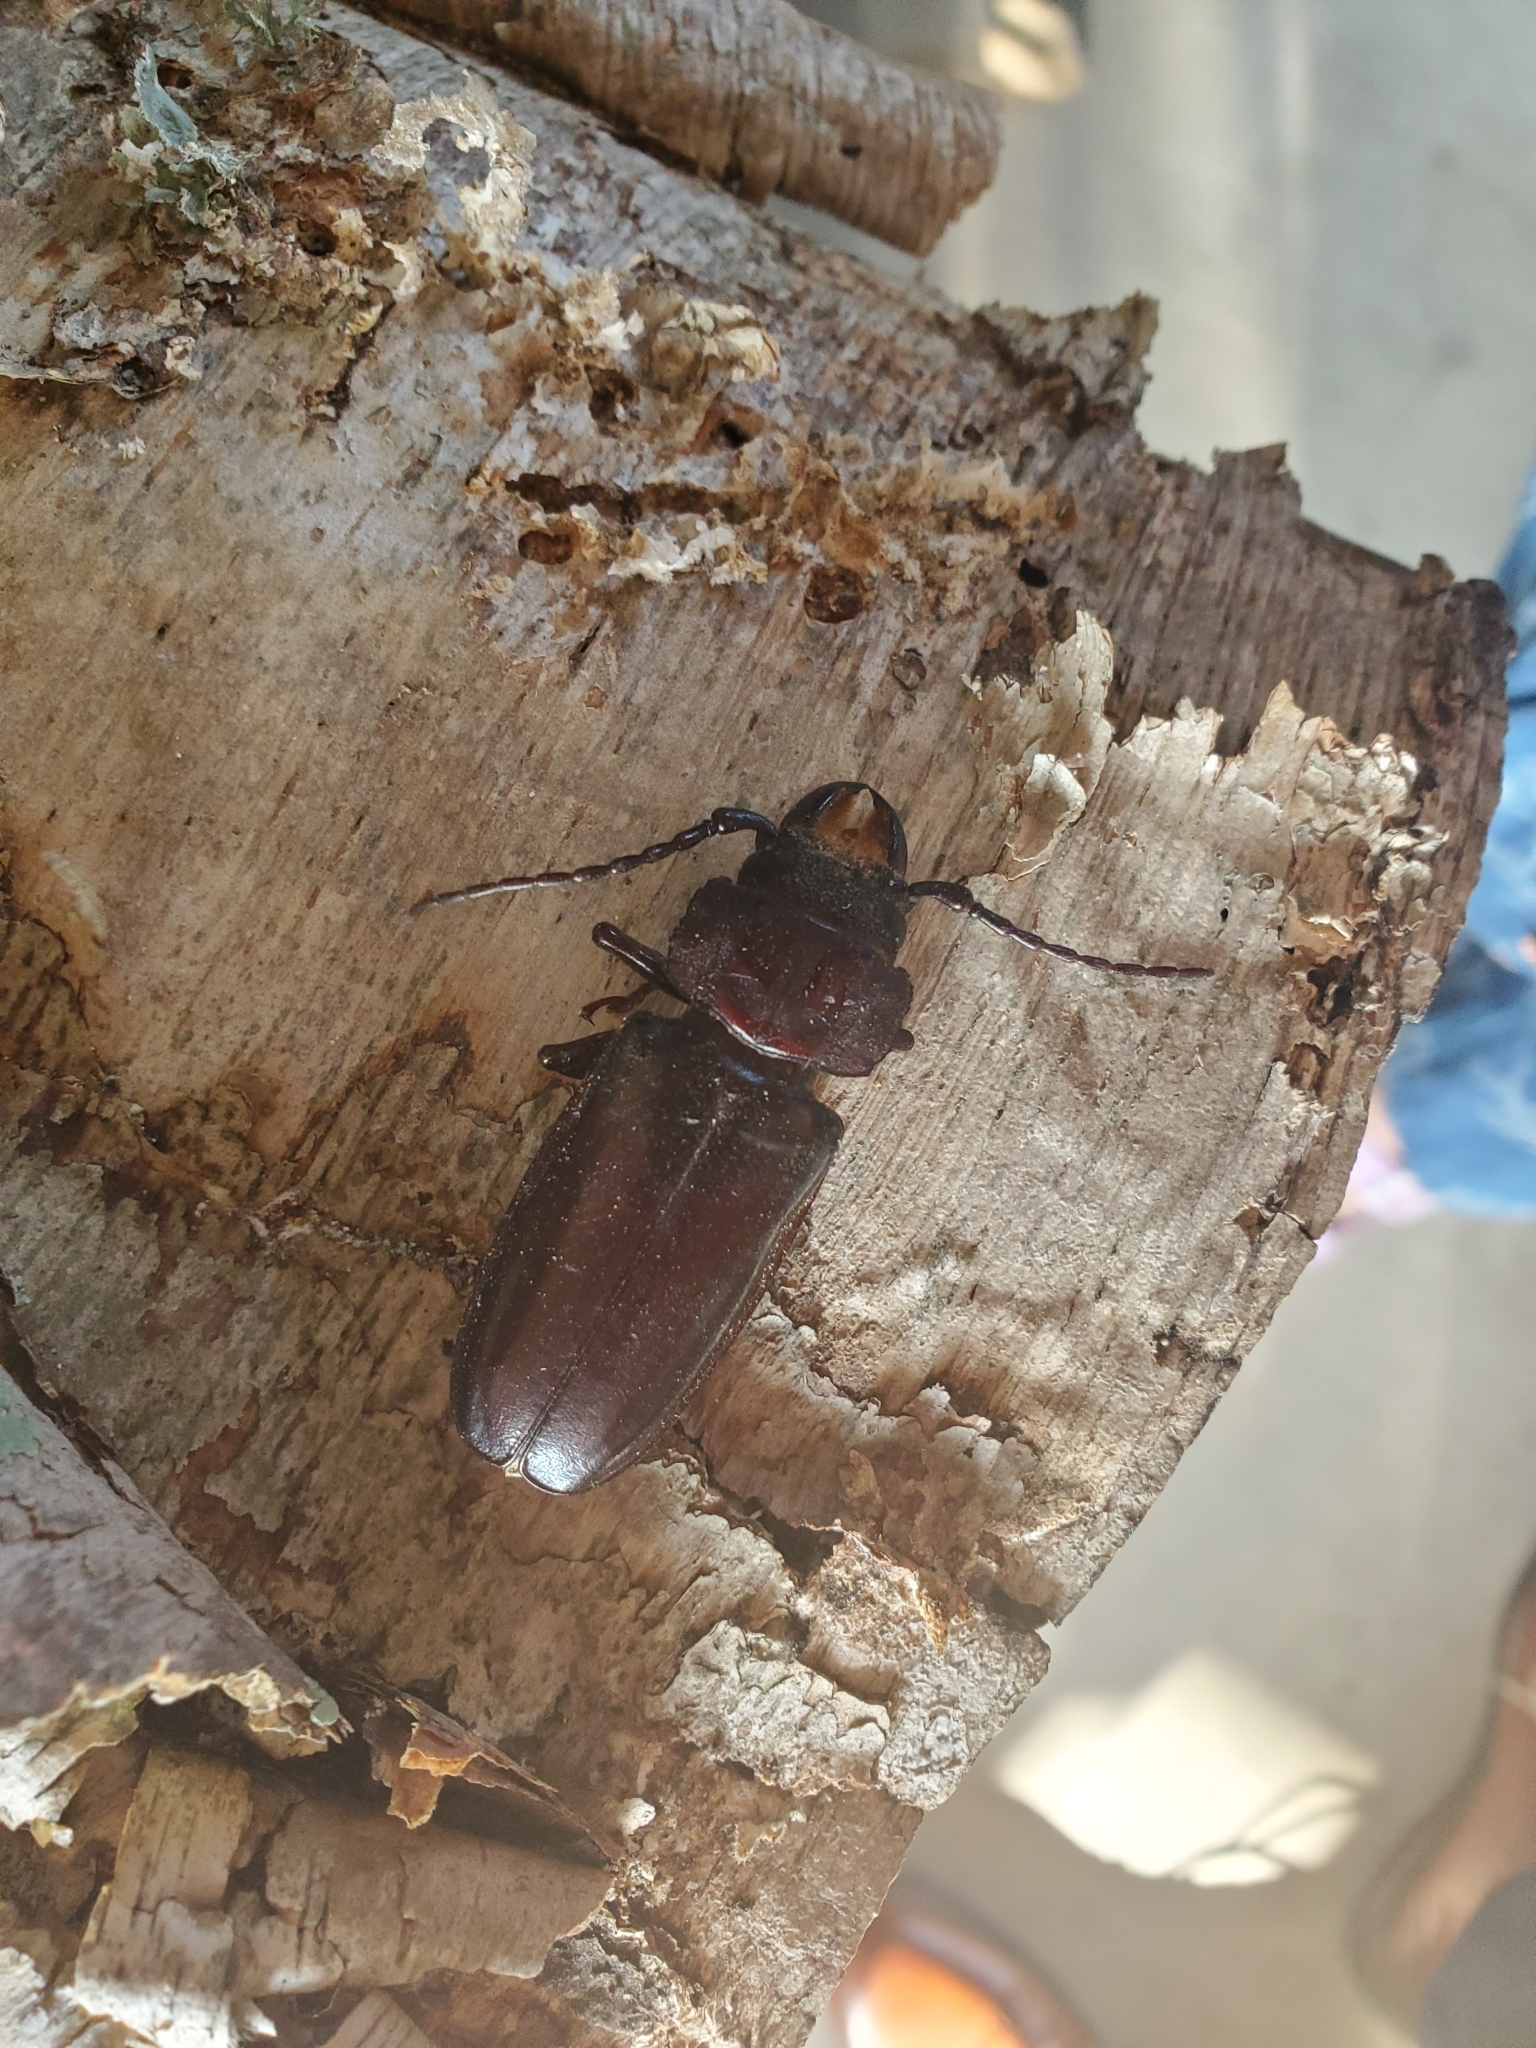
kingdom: Animalia
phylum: Arthropoda
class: Insecta
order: Coleoptera
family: Cerambycidae
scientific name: Cerambycidae
